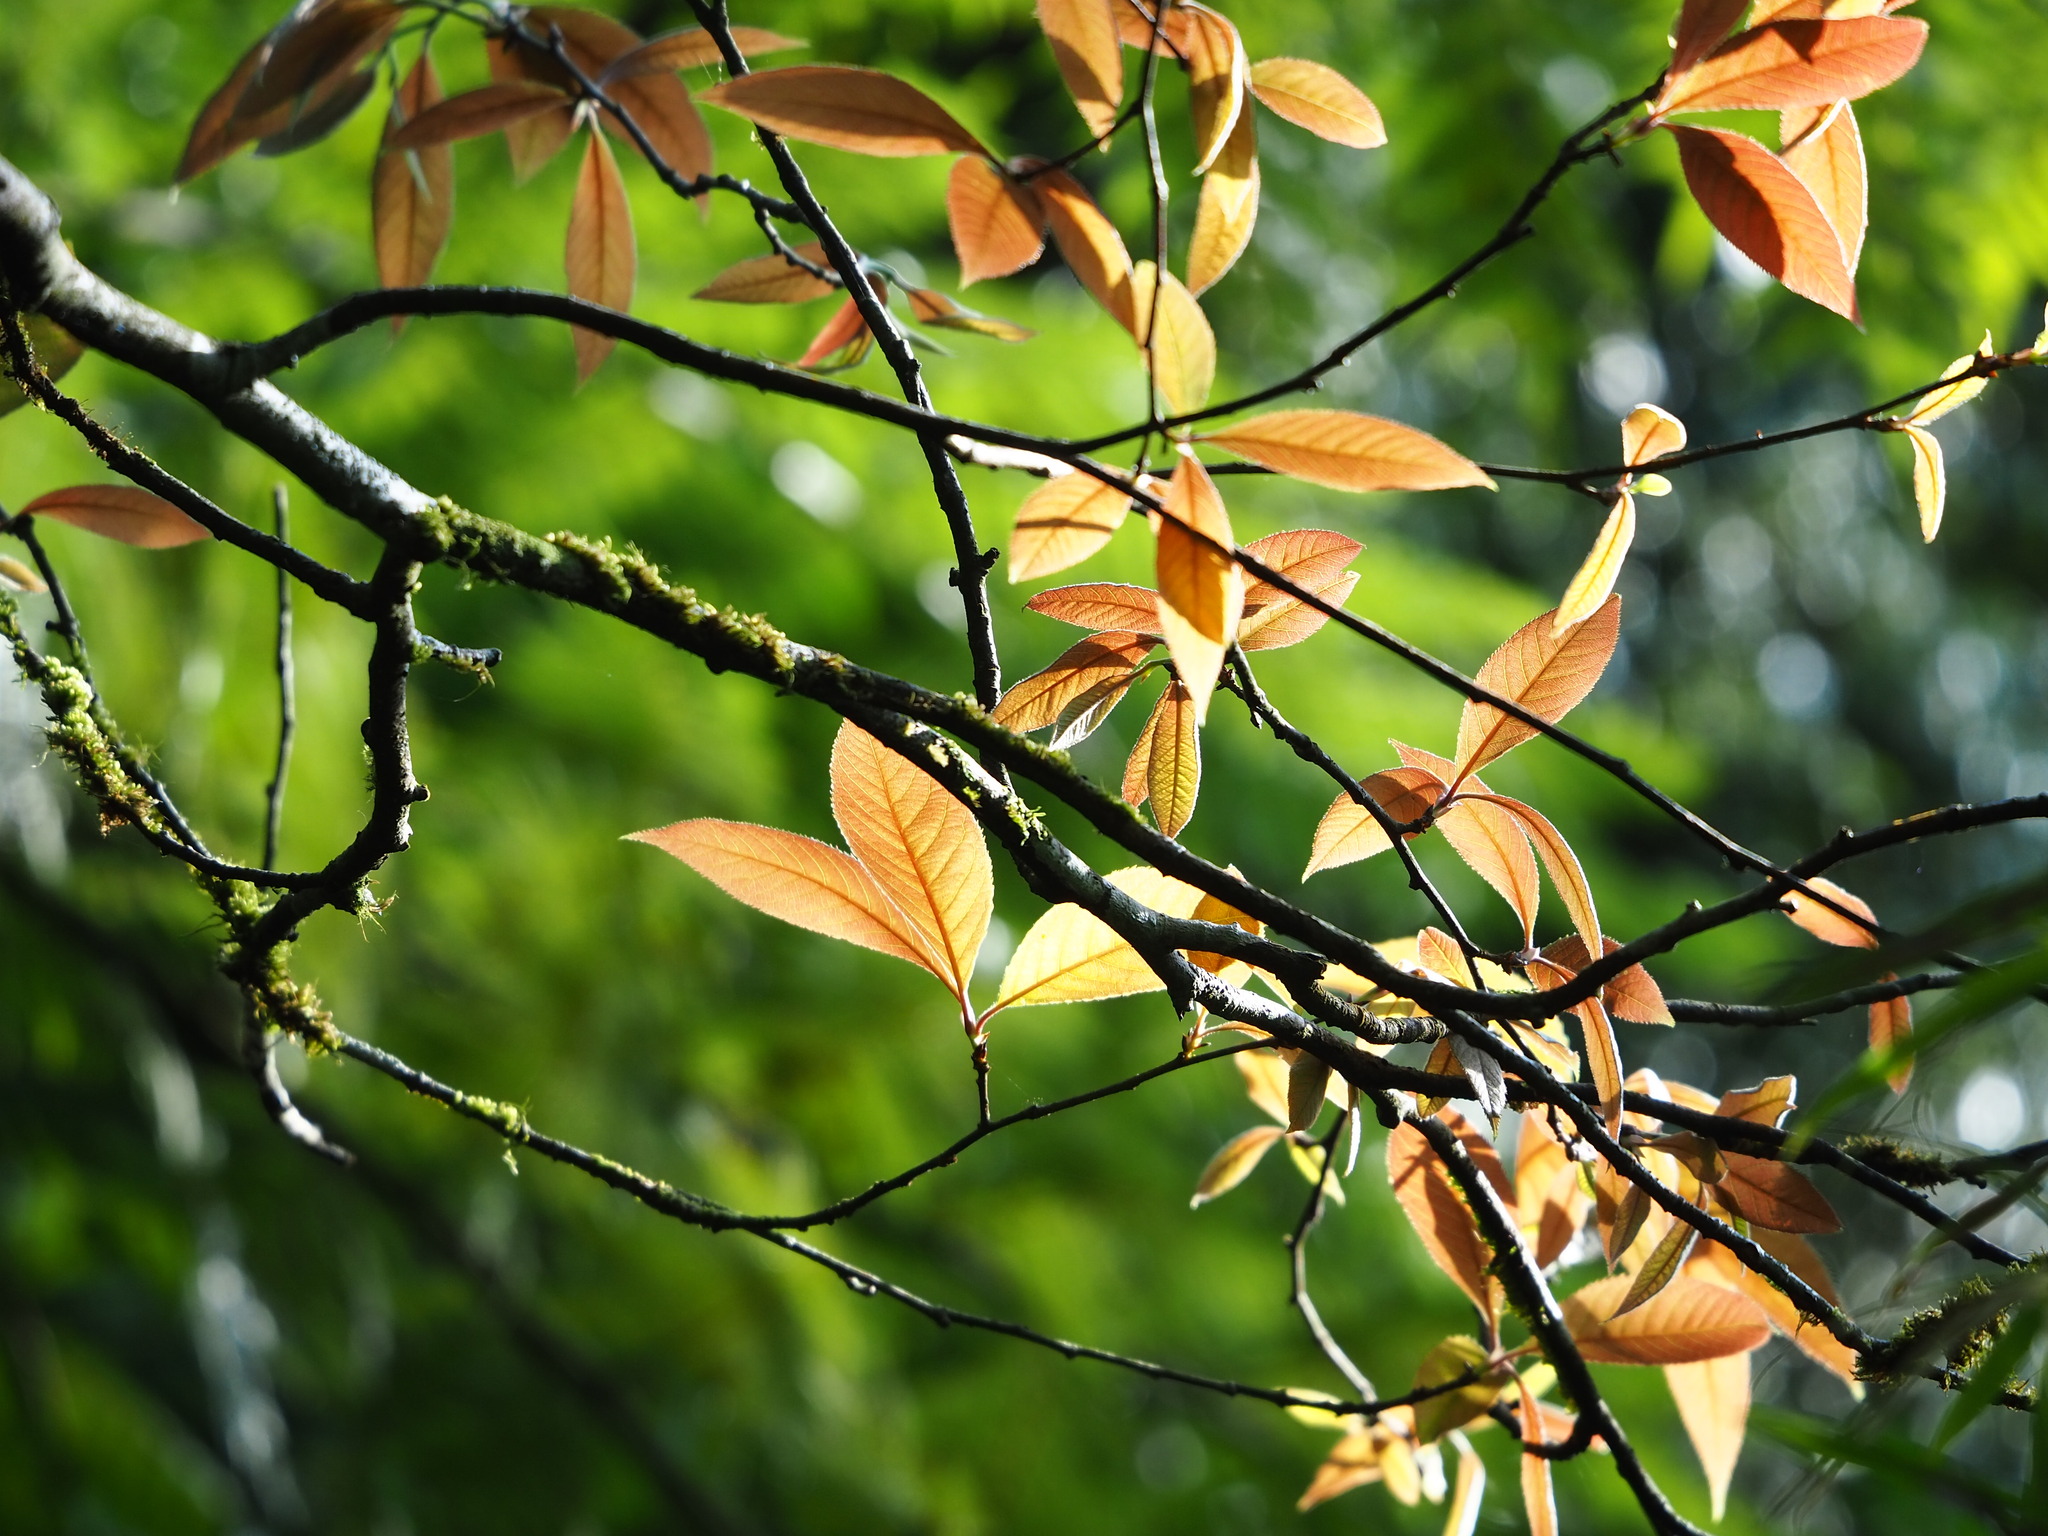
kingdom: Plantae
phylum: Tracheophyta
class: Magnoliopsida
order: Rosales
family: Rosaceae
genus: Pourthiaea
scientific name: Pourthiaea arguta
